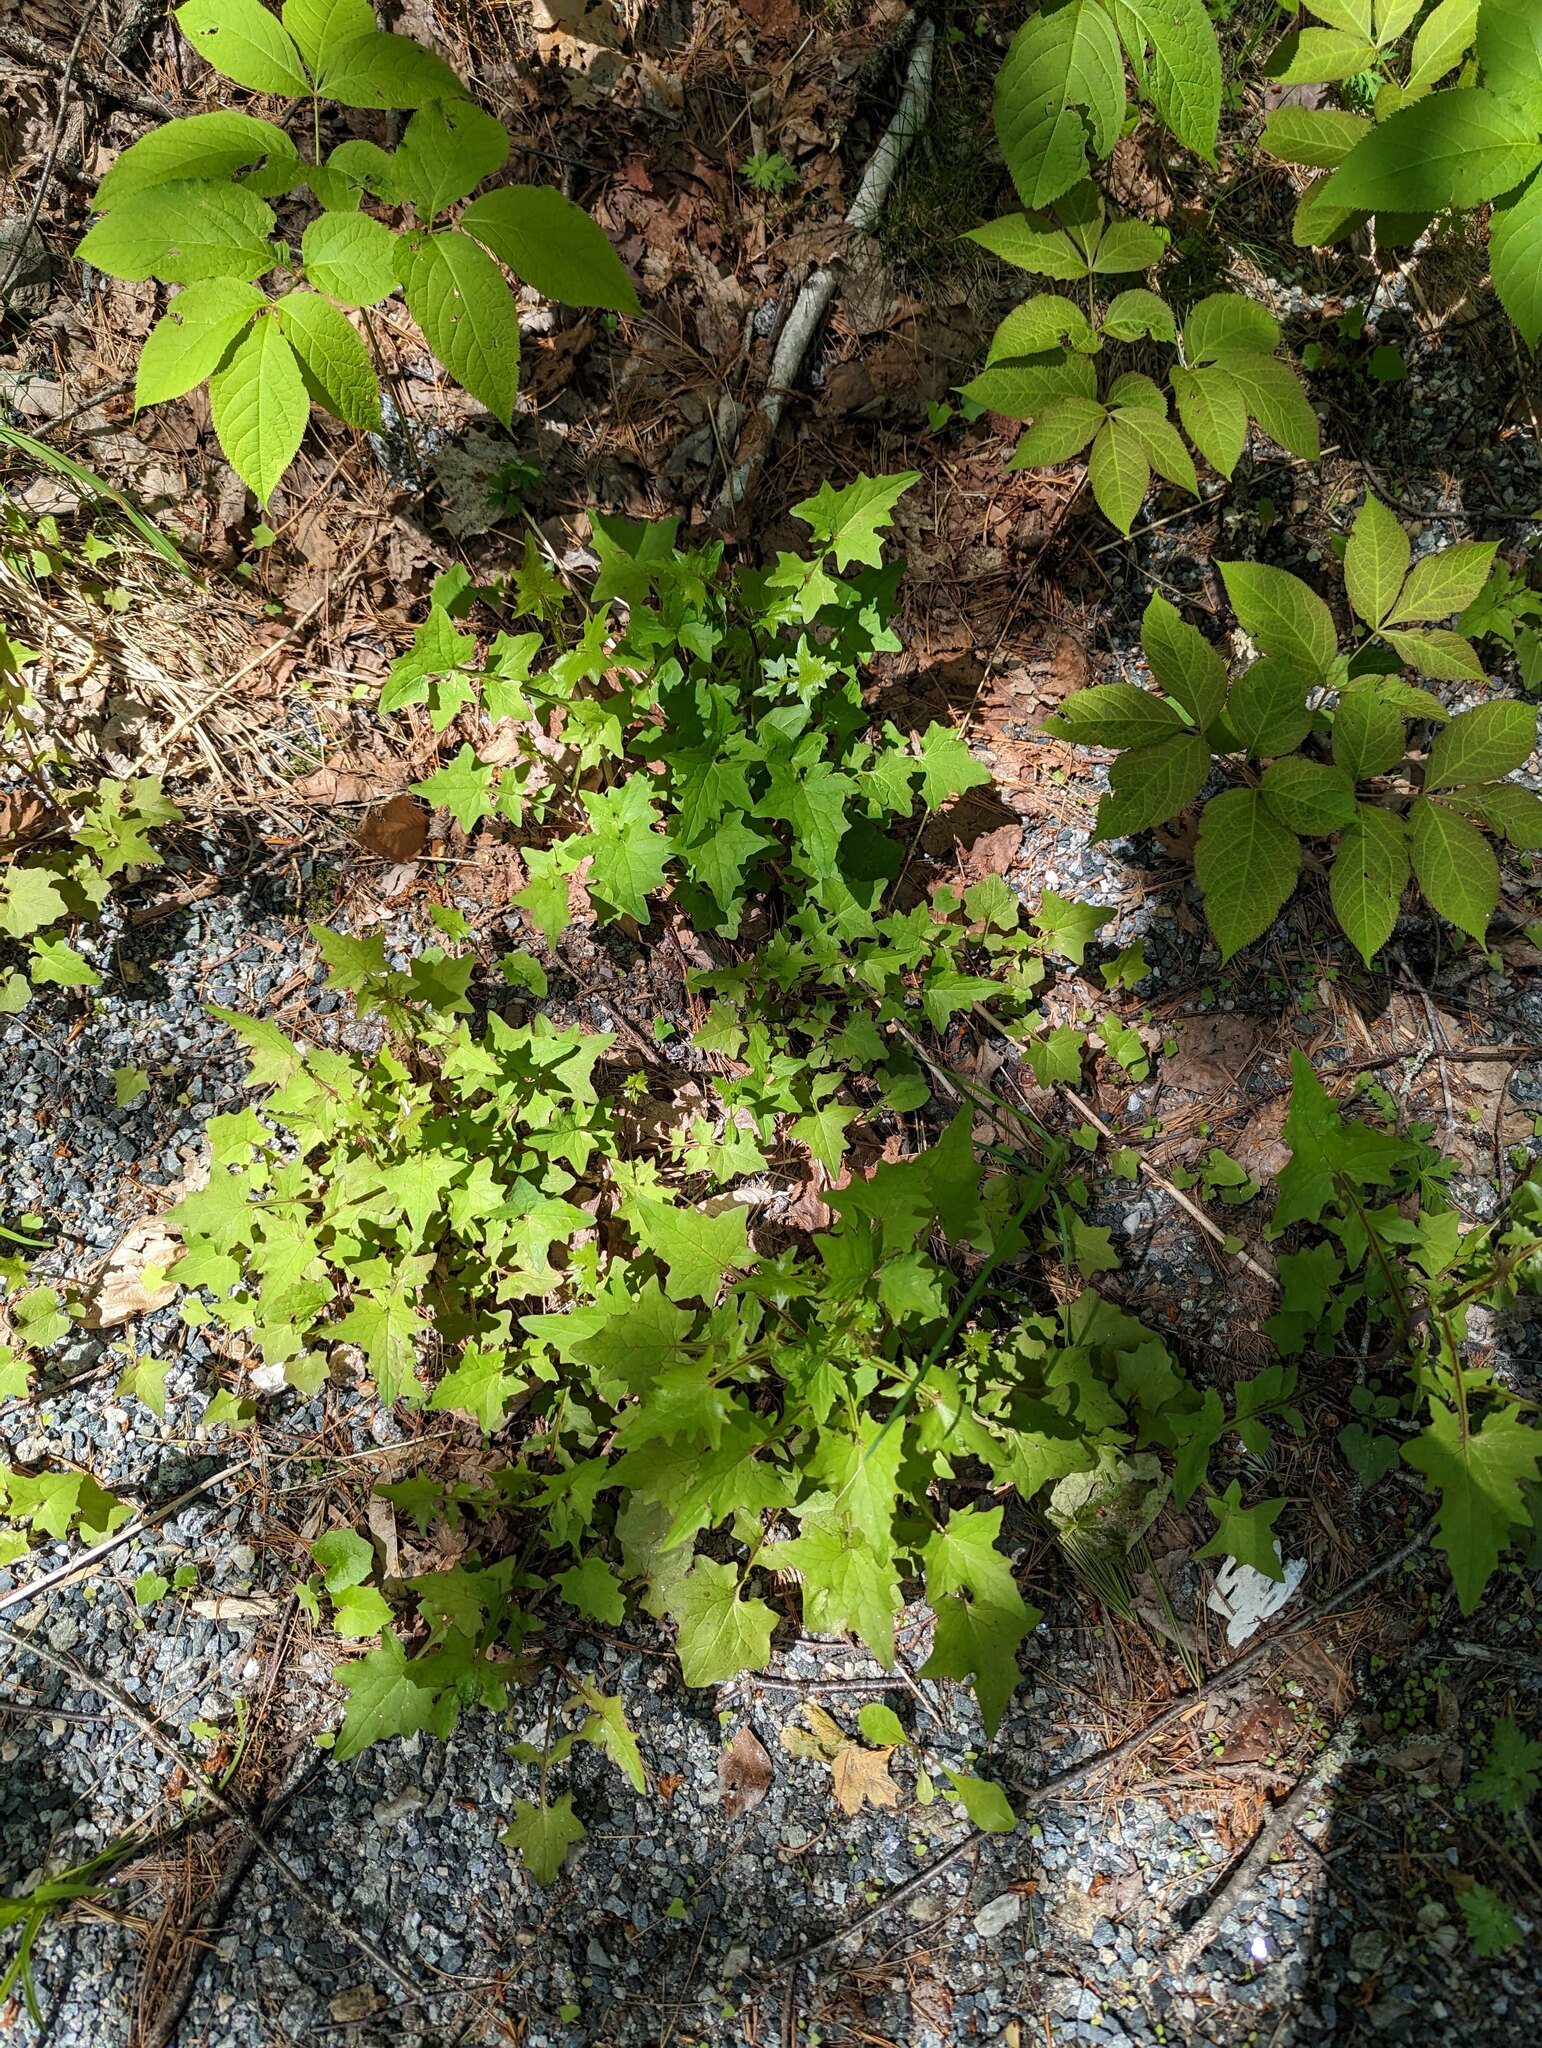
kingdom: Plantae
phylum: Tracheophyta
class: Magnoliopsida
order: Asterales
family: Asteraceae
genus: Mycelis
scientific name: Mycelis muralis
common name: Wall lettuce
